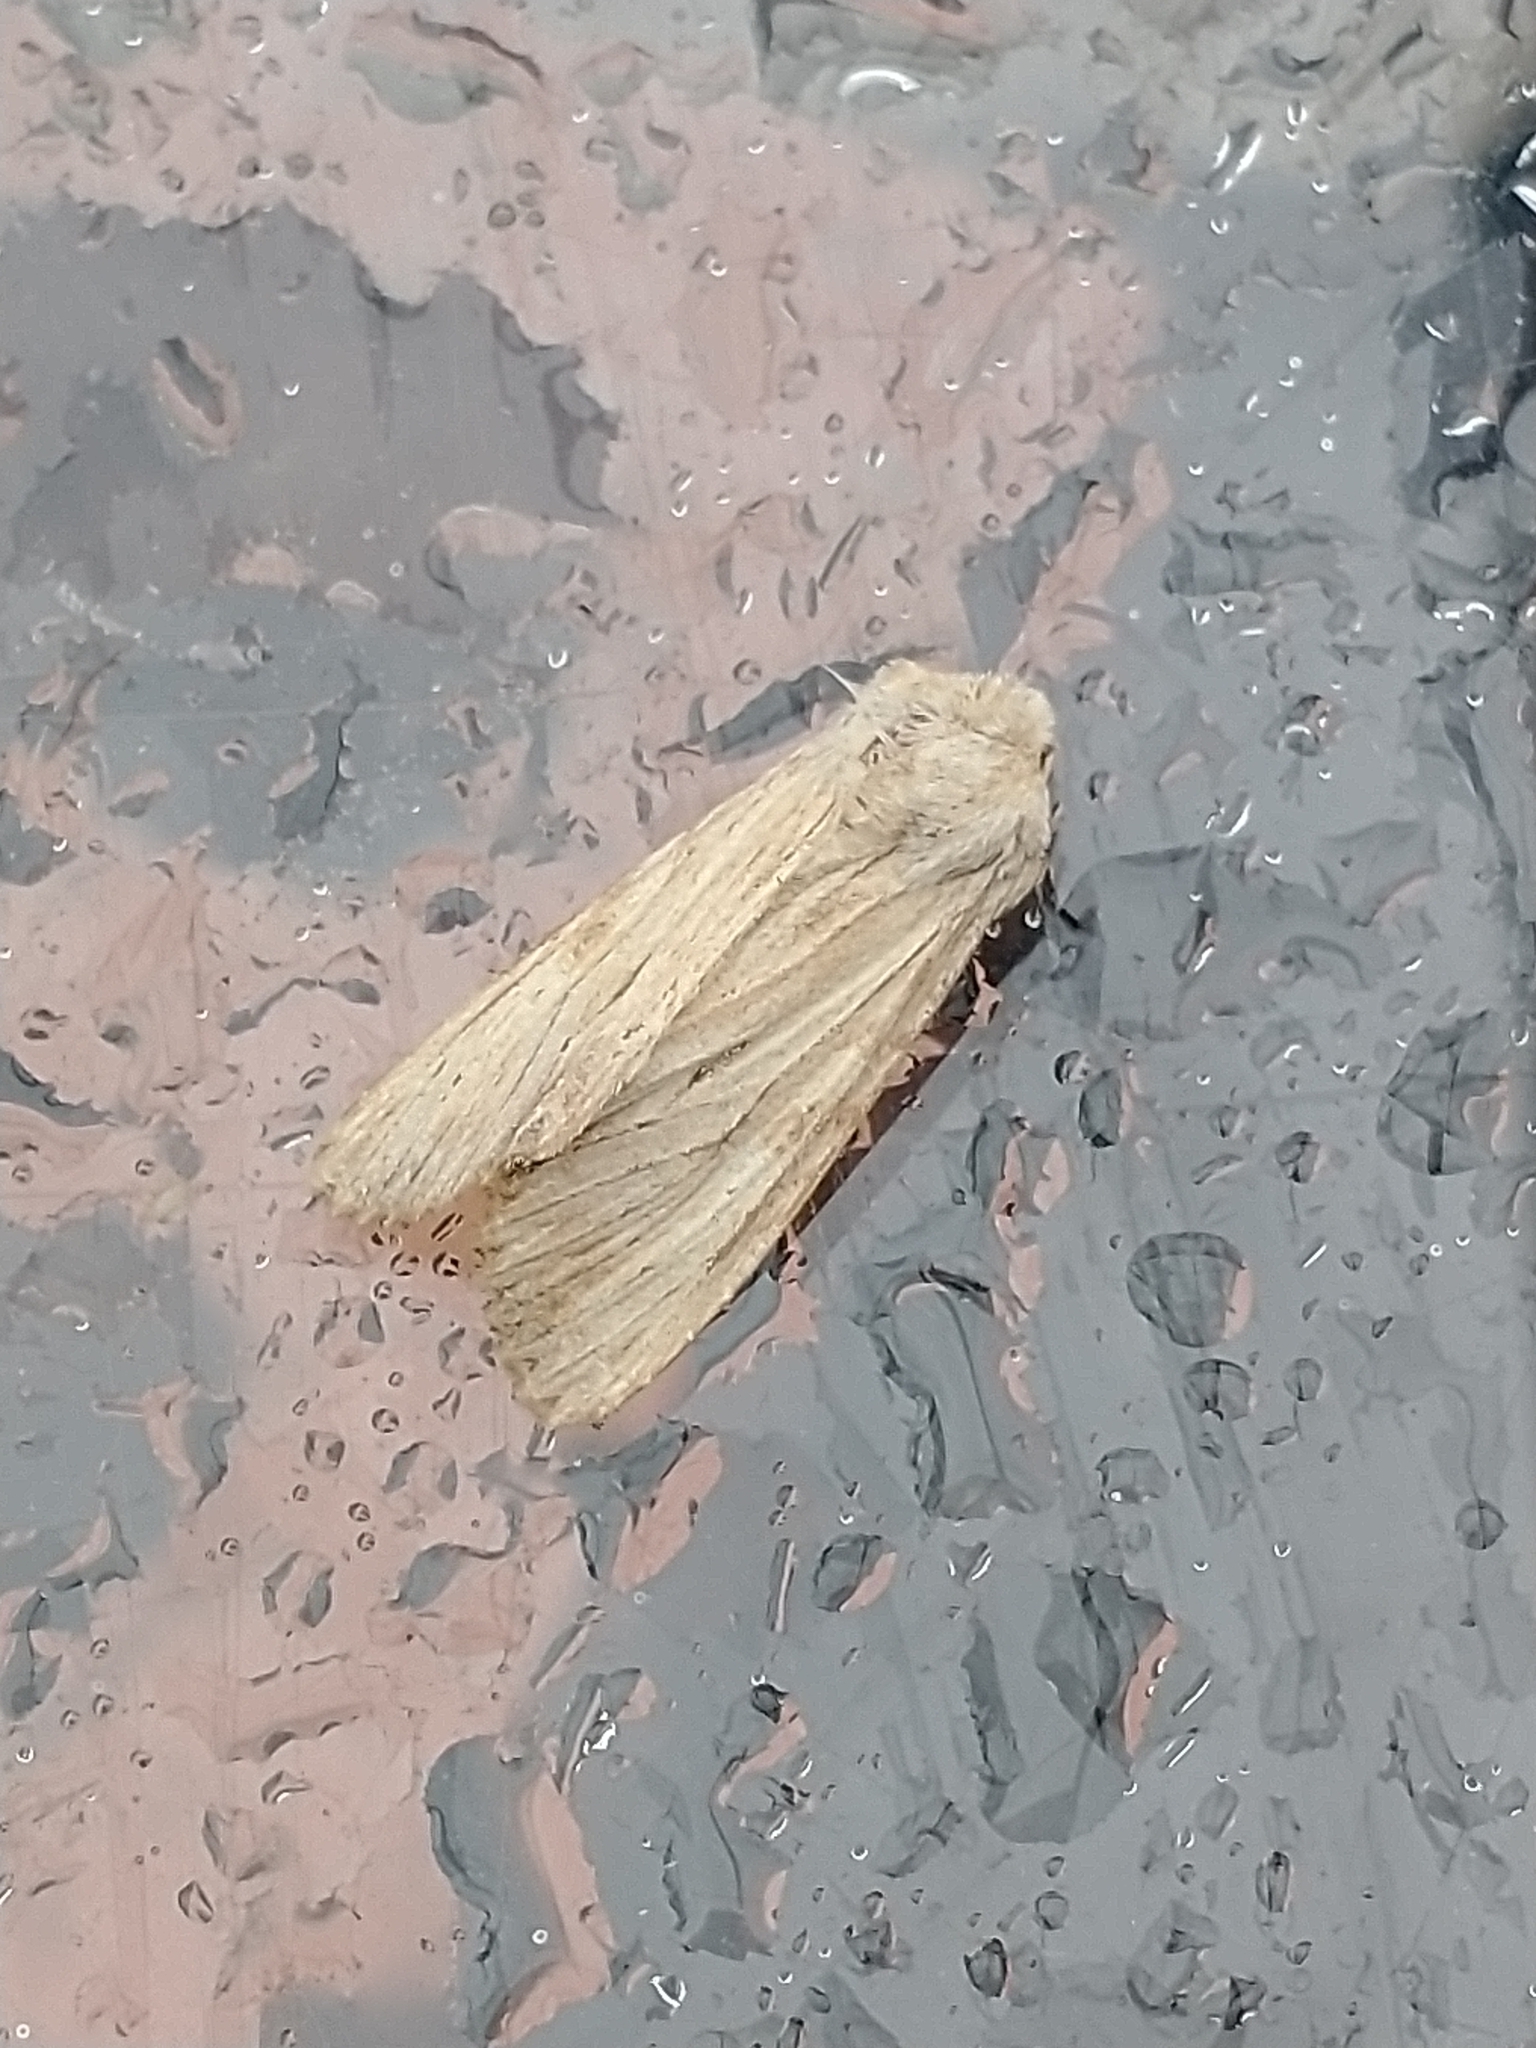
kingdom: Animalia
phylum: Arthropoda
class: Insecta
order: Lepidoptera
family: Noctuidae
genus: Apamea
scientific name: Apamea lithoxylaea
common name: Light arches
